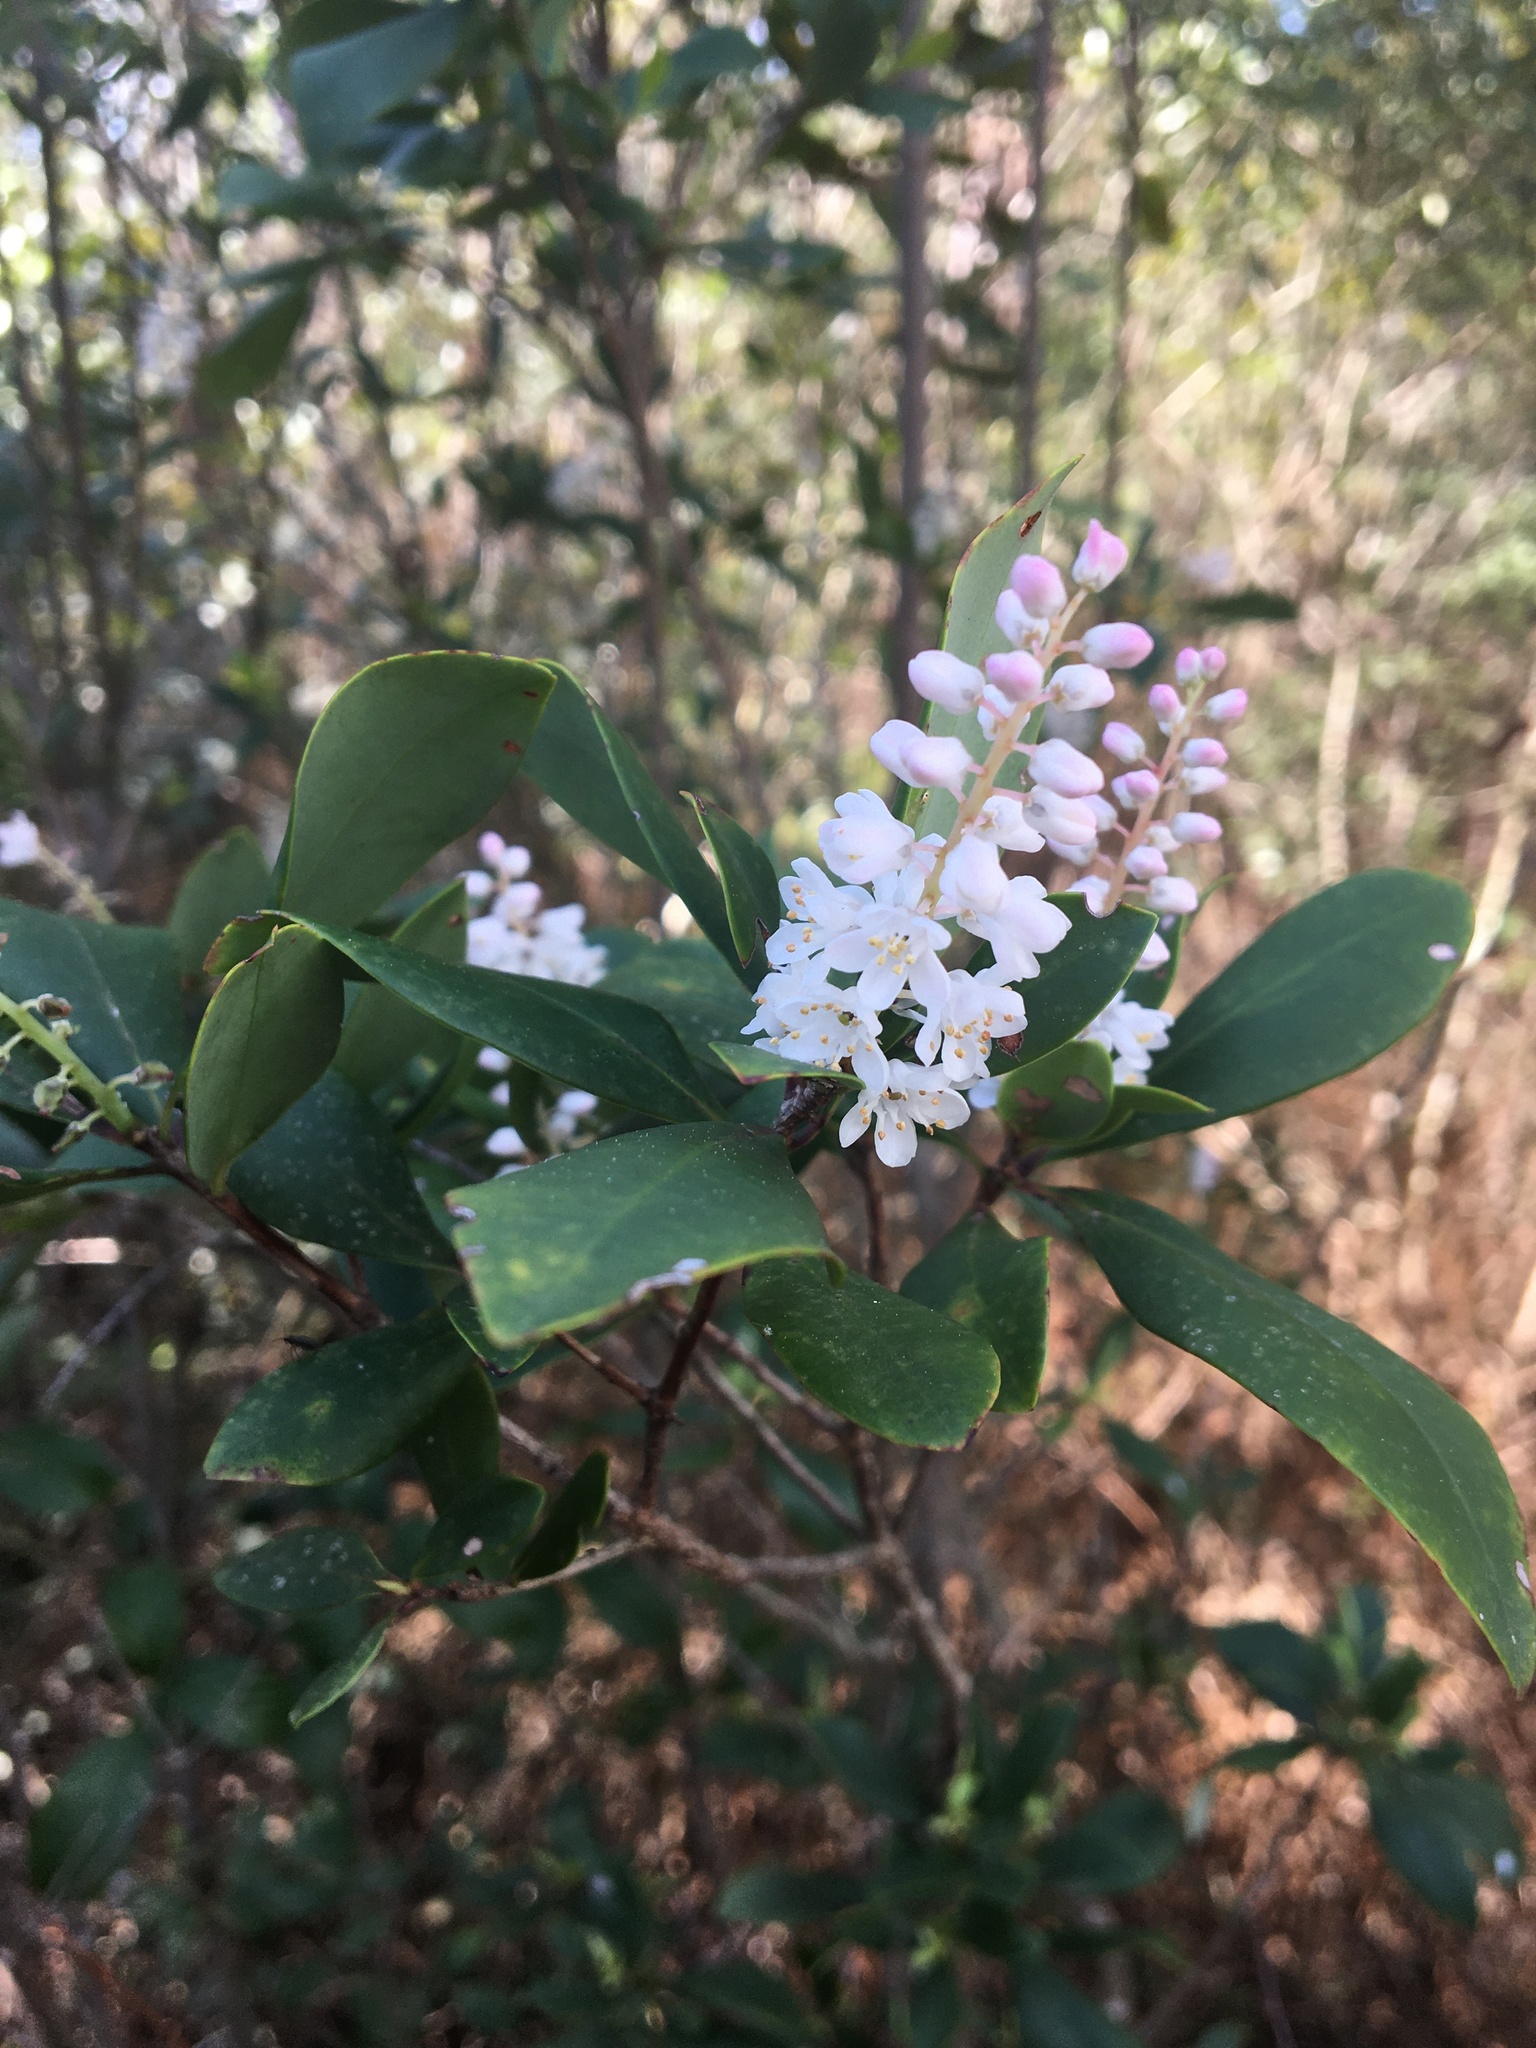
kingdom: Plantae
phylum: Tracheophyta
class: Magnoliopsida
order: Ericales
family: Cyrillaceae
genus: Cliftonia
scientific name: Cliftonia monophylla
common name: Titi
